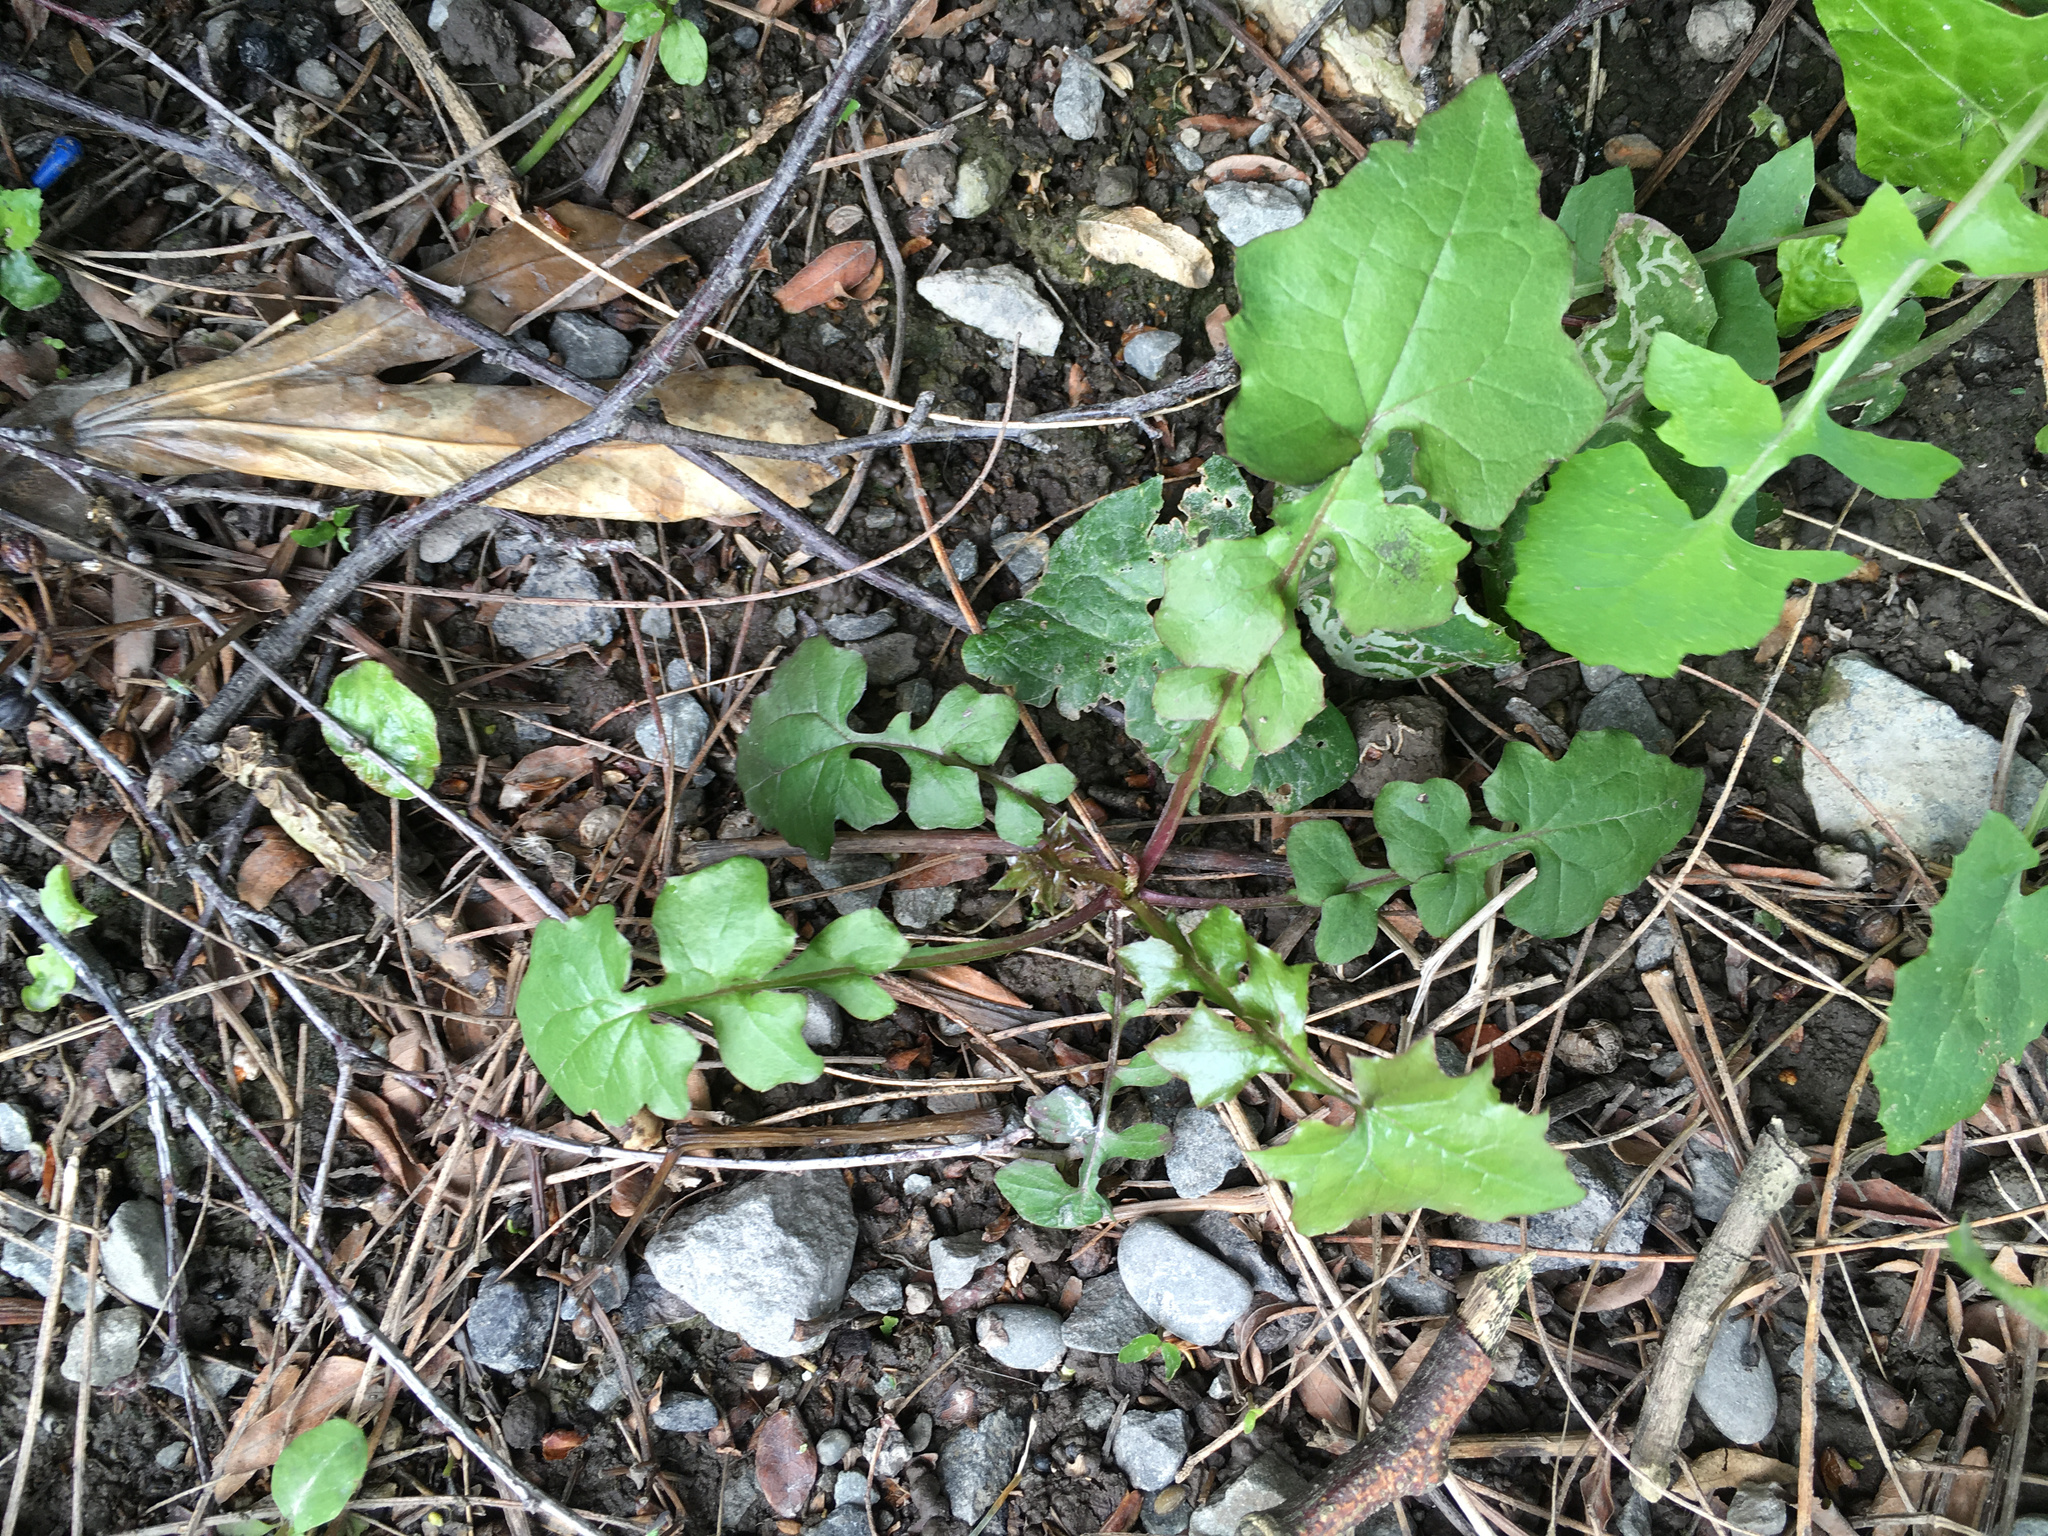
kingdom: Plantae
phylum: Tracheophyta
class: Magnoliopsida
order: Asterales
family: Asteraceae
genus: Mycelis
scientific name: Mycelis muralis
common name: Wall lettuce
